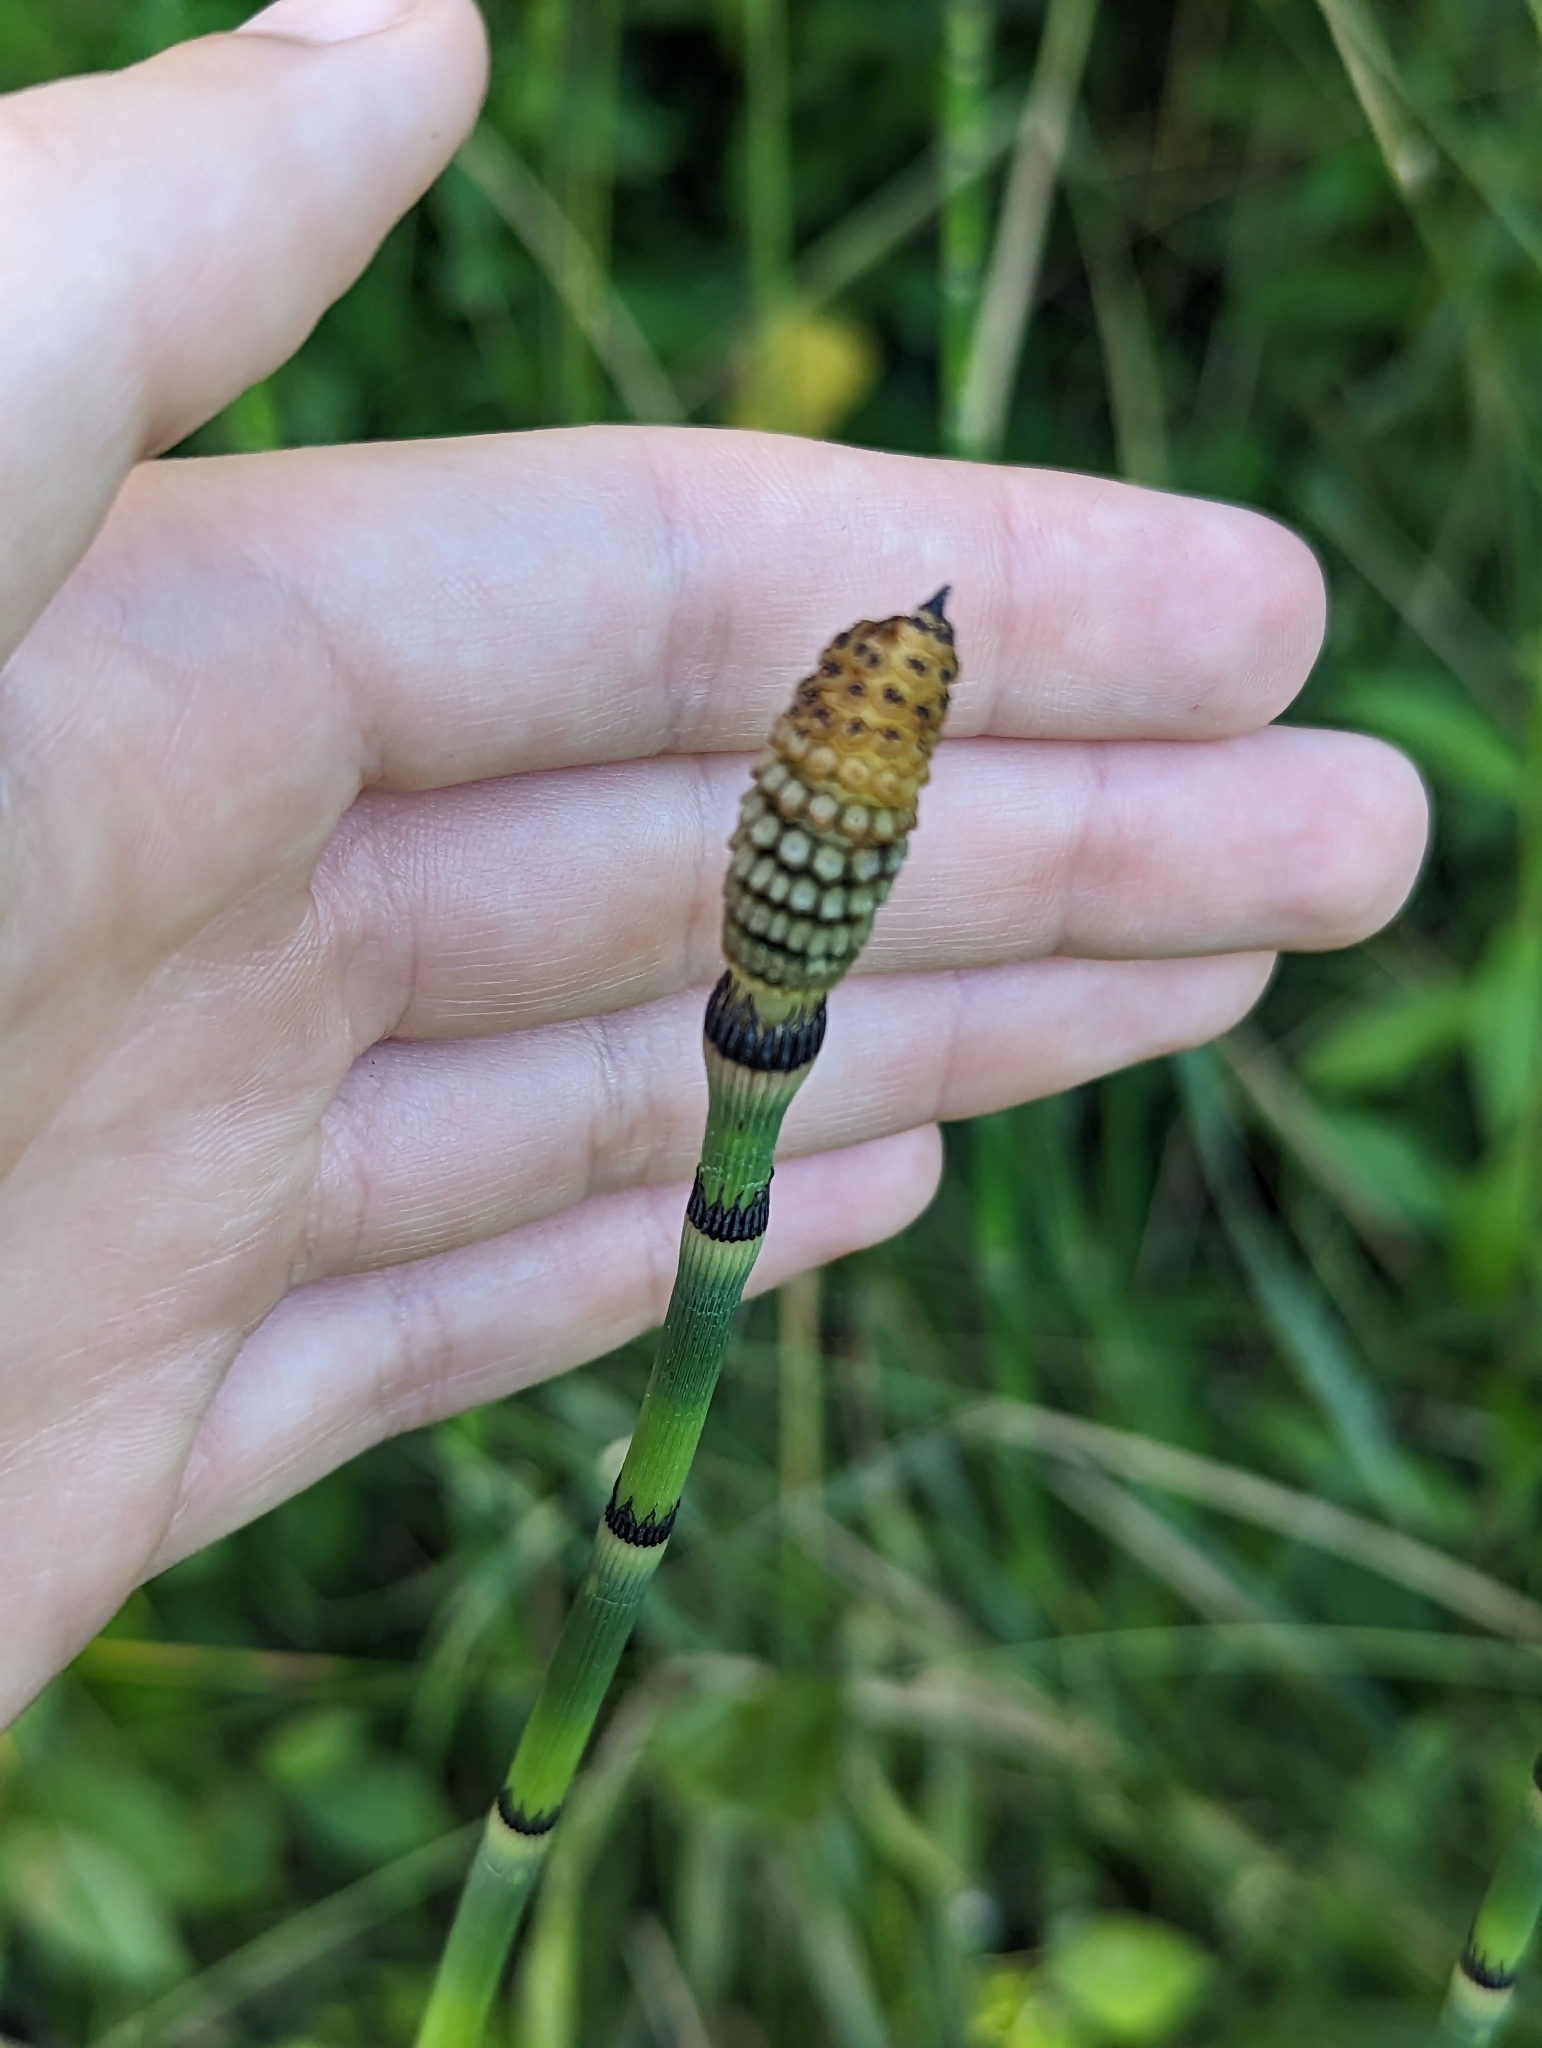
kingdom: Plantae
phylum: Tracheophyta
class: Polypodiopsida
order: Equisetales
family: Equisetaceae
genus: Equisetum
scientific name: Equisetum praealtum
